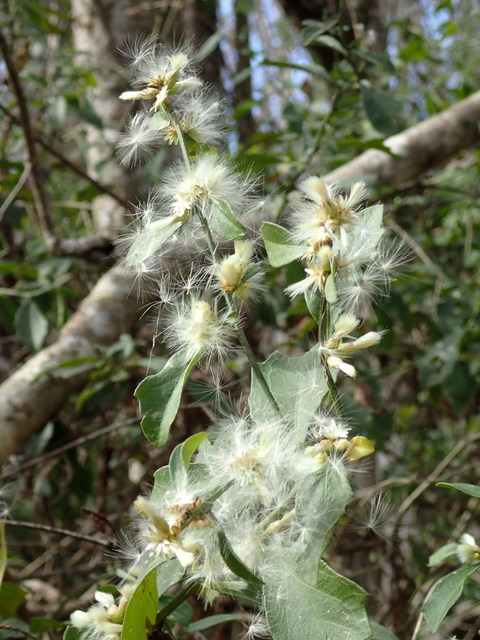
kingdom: Plantae
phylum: Tracheophyta
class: Magnoliopsida
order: Asterales
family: Asteraceae
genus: Baccharis
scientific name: Baccharis glomeruliflora
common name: Silverling groundsel bush
